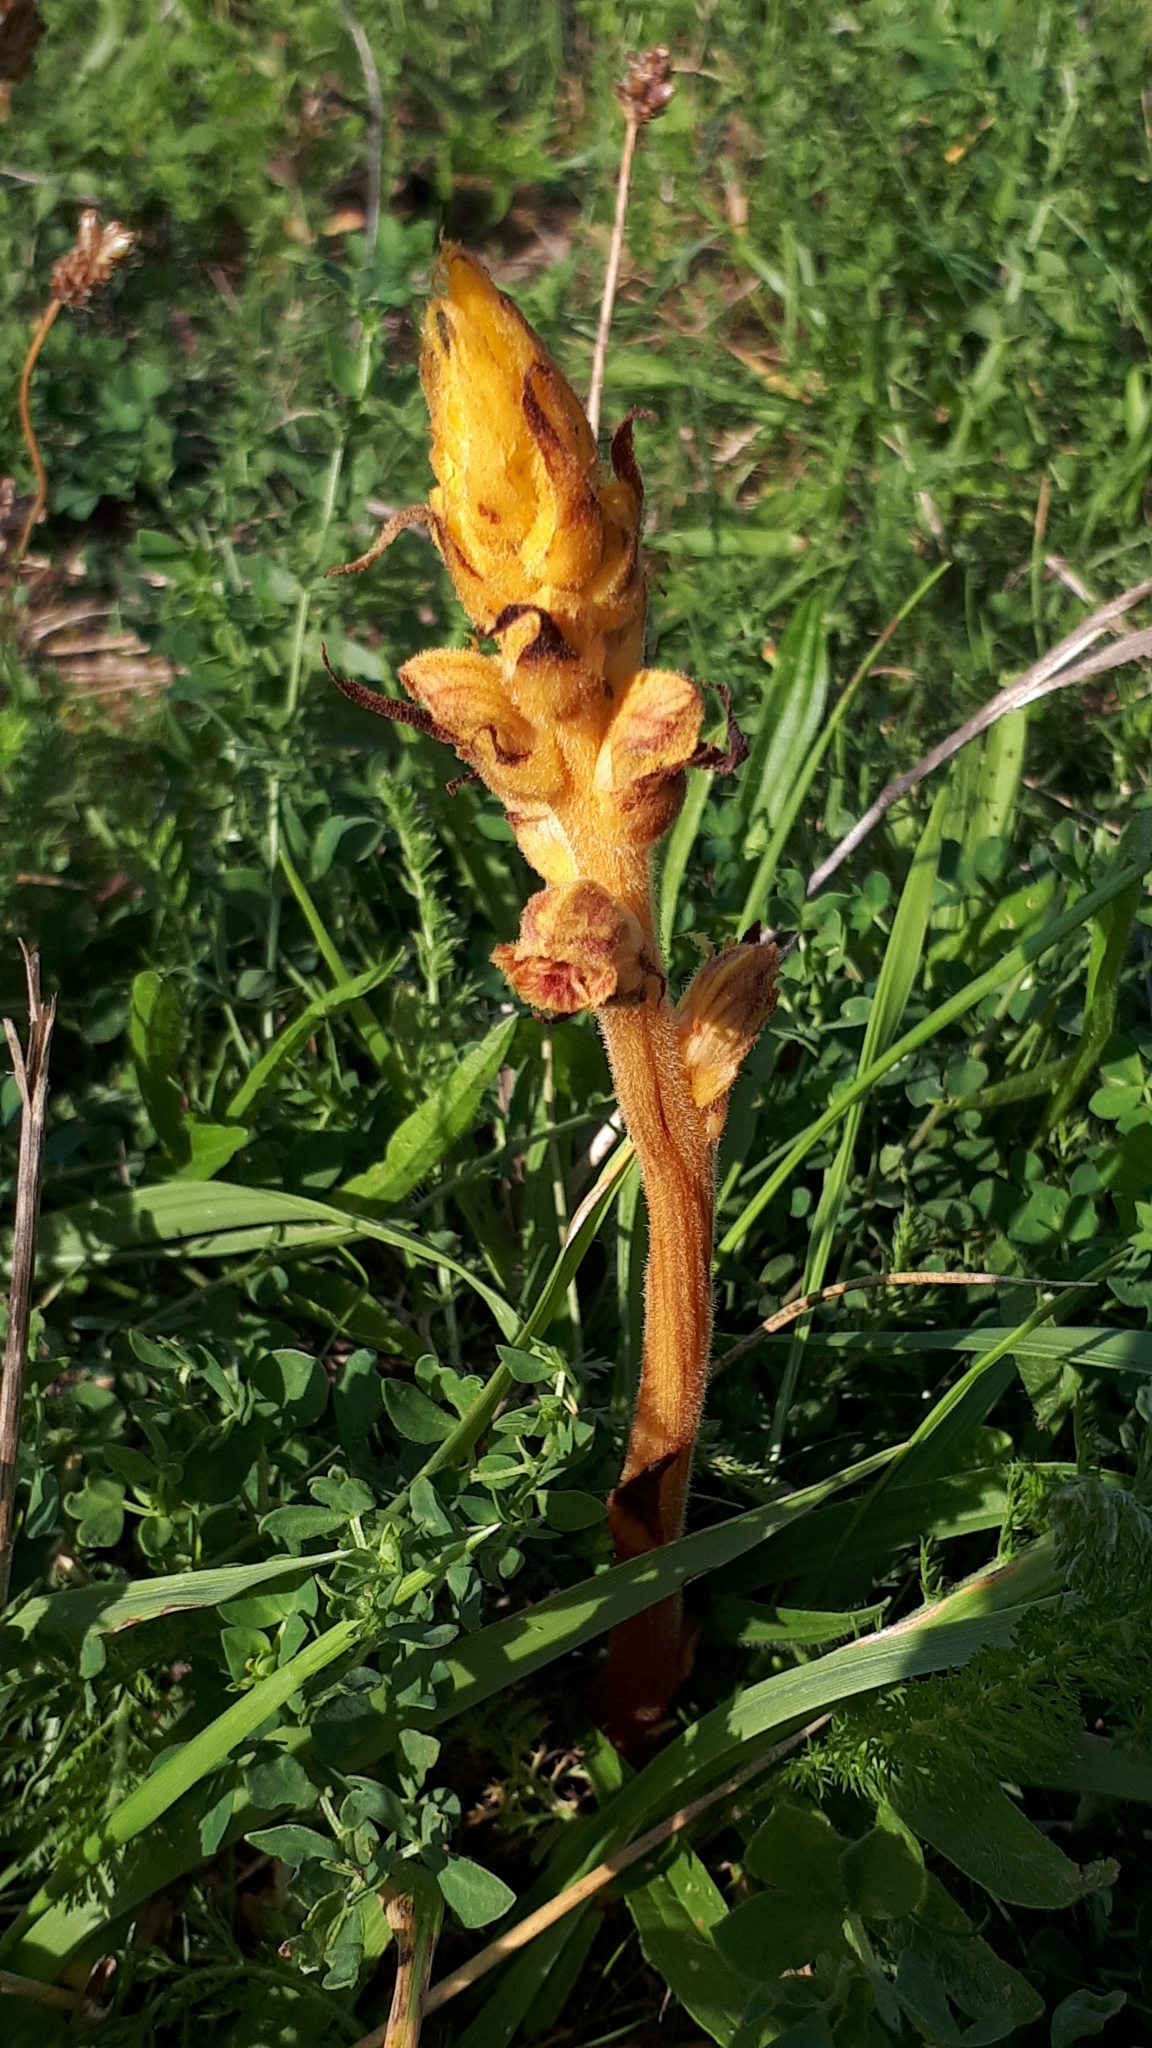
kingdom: Plantae
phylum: Tracheophyta
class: Magnoliopsida
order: Lamiales
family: Orobanchaceae
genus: Orobanche
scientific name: Orobanche gracilis
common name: Slender broomrape
